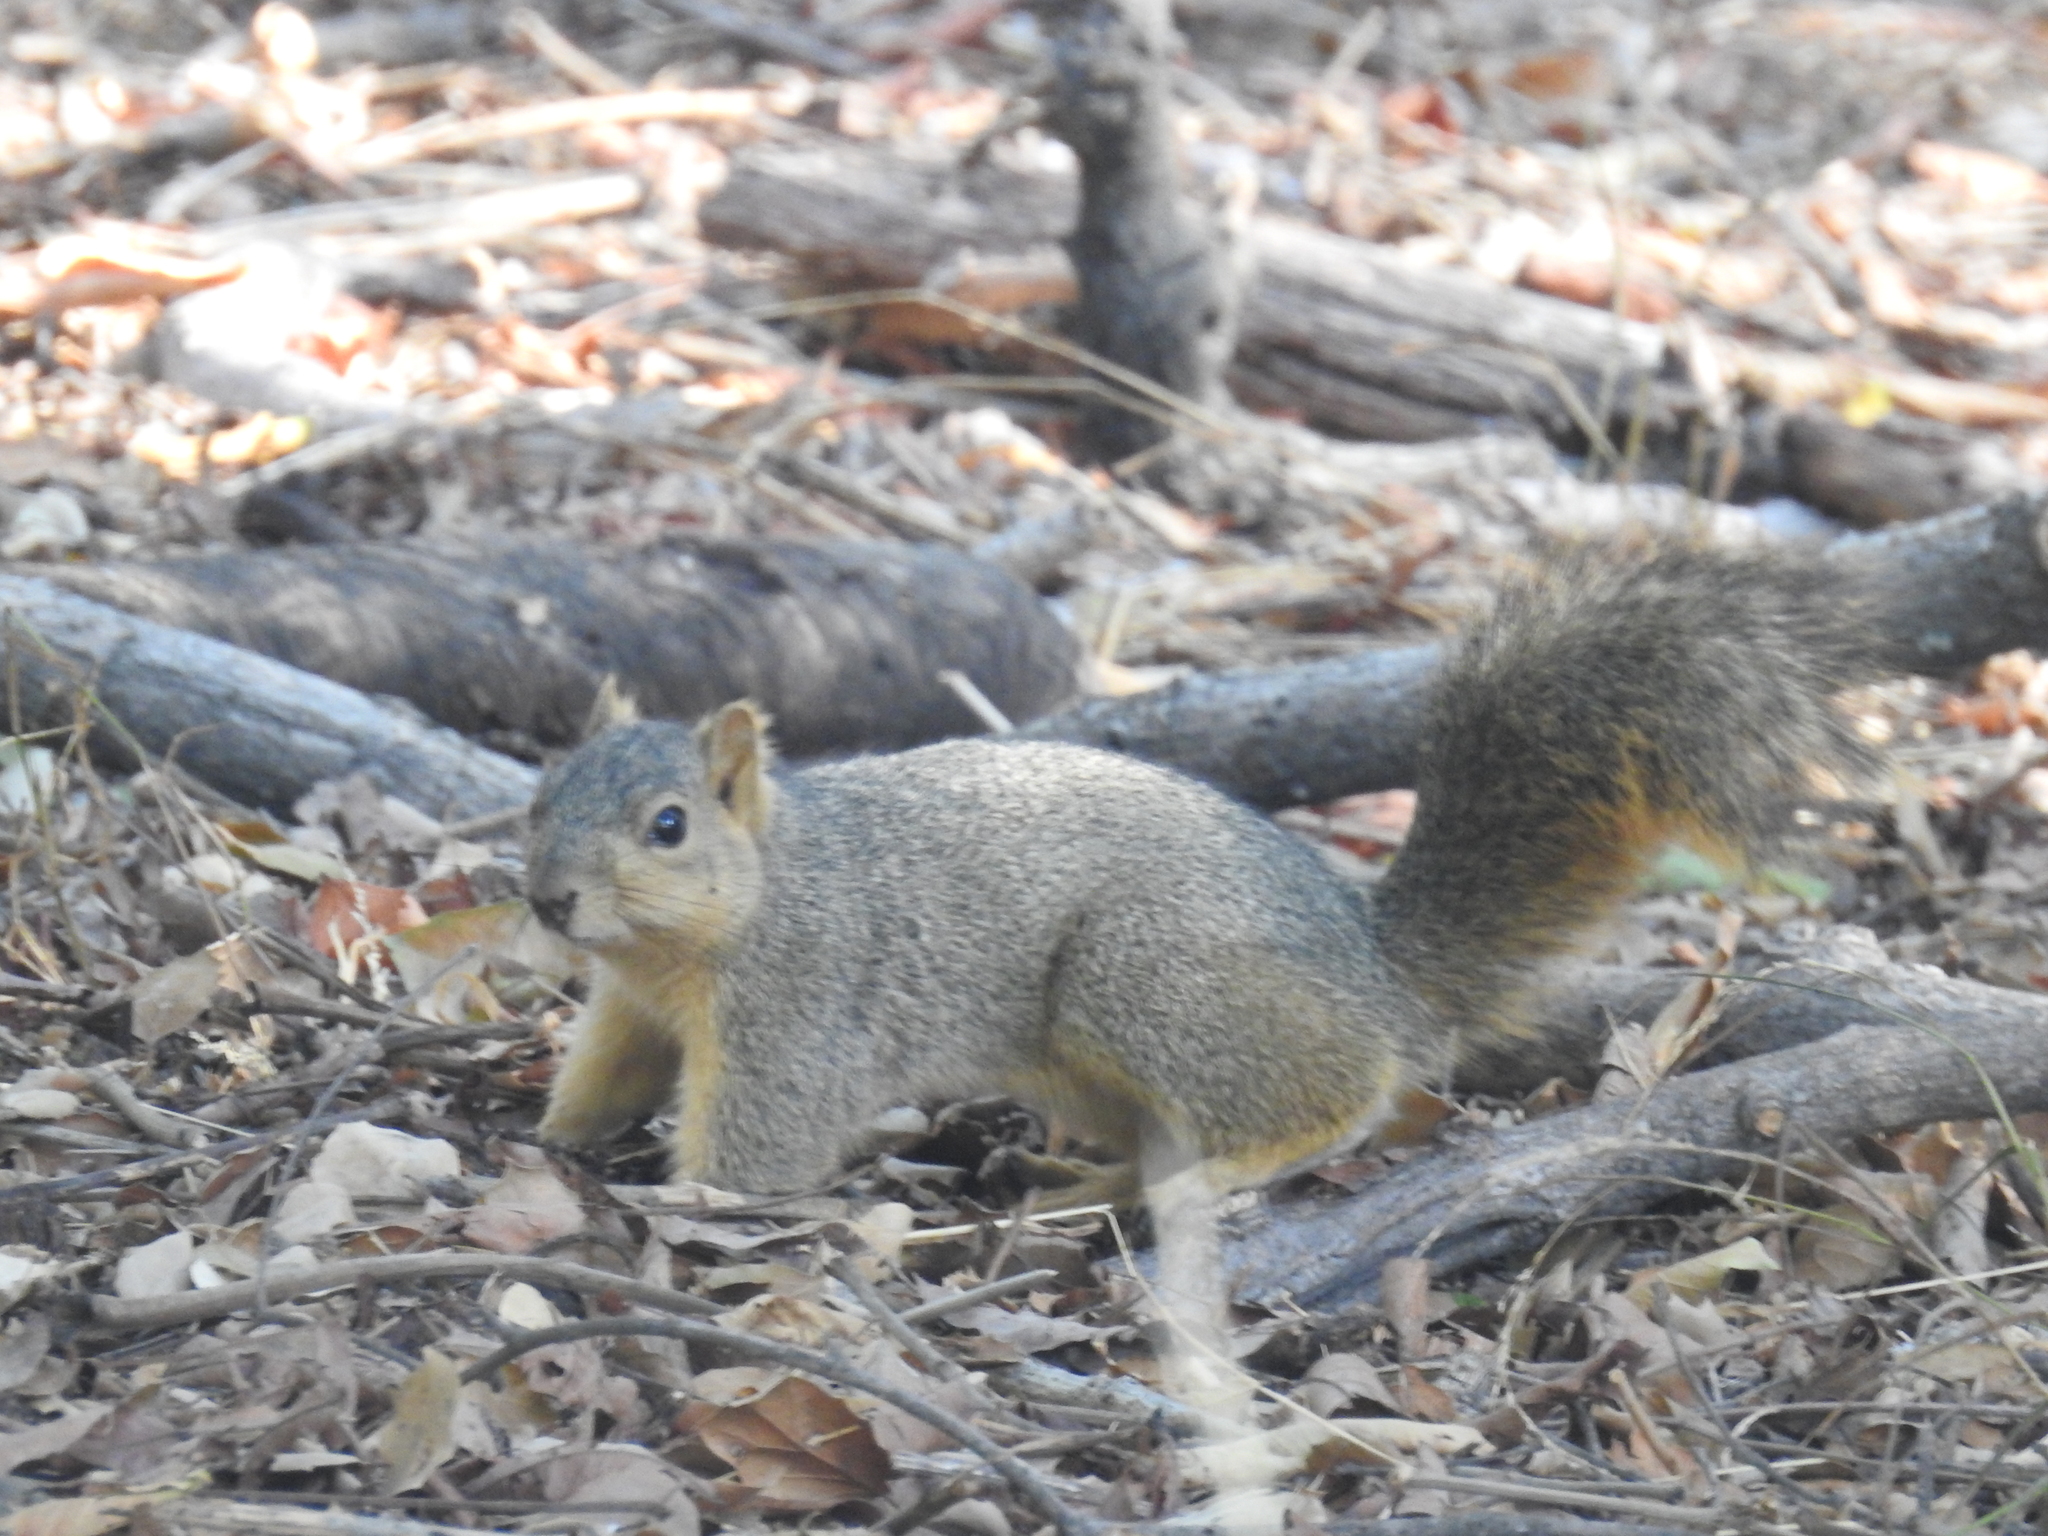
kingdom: Animalia
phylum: Chordata
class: Mammalia
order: Rodentia
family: Sciuridae
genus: Sciurus
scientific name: Sciurus niger
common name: Fox squirrel
